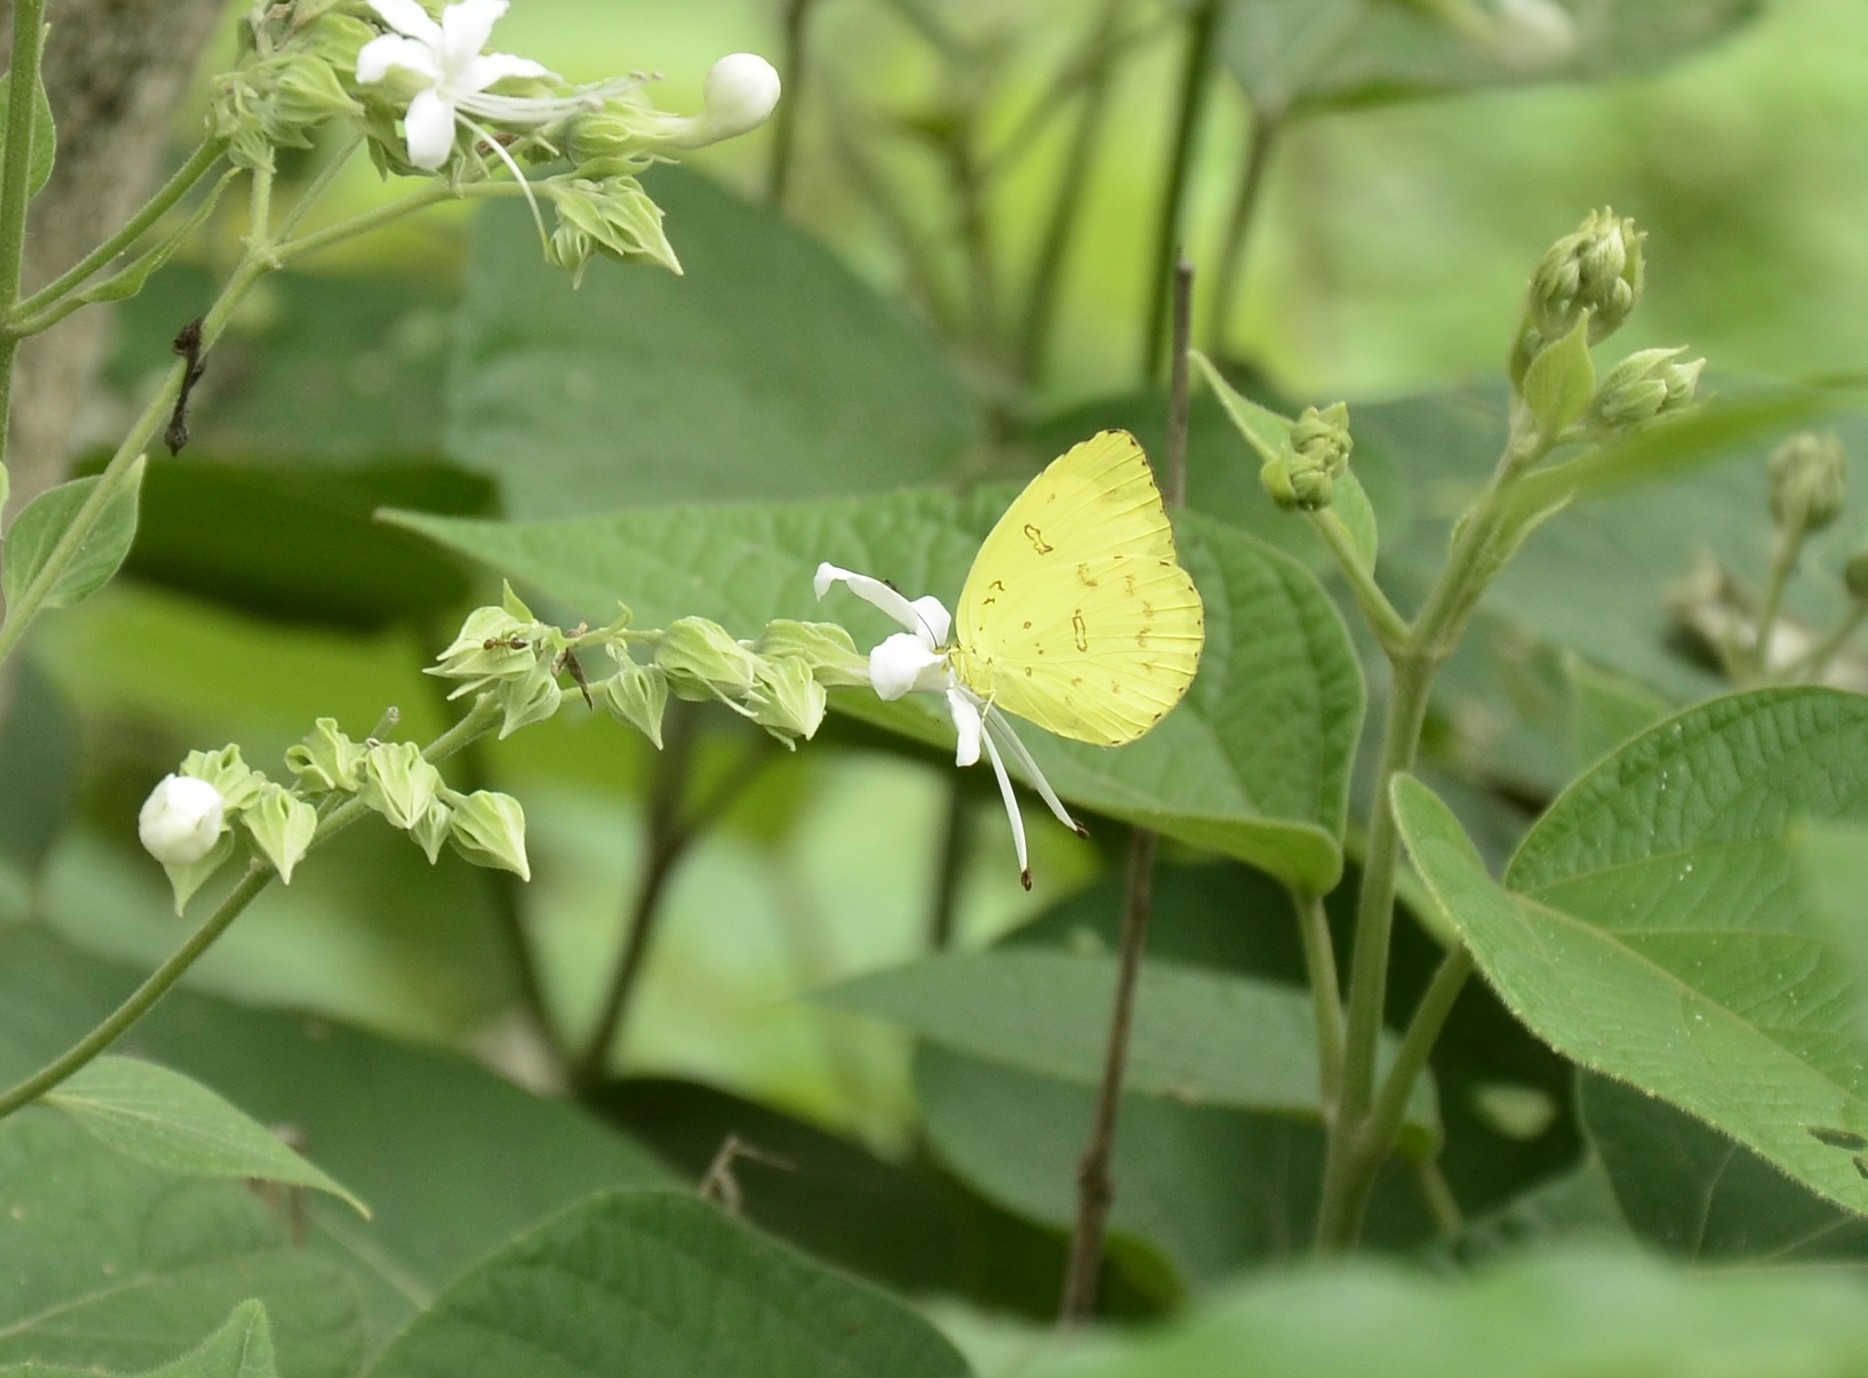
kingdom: Animalia
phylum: Arthropoda
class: Insecta
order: Lepidoptera
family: Pieridae
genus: Eurema
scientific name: Eurema blanda
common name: Three-spot grass yellow
